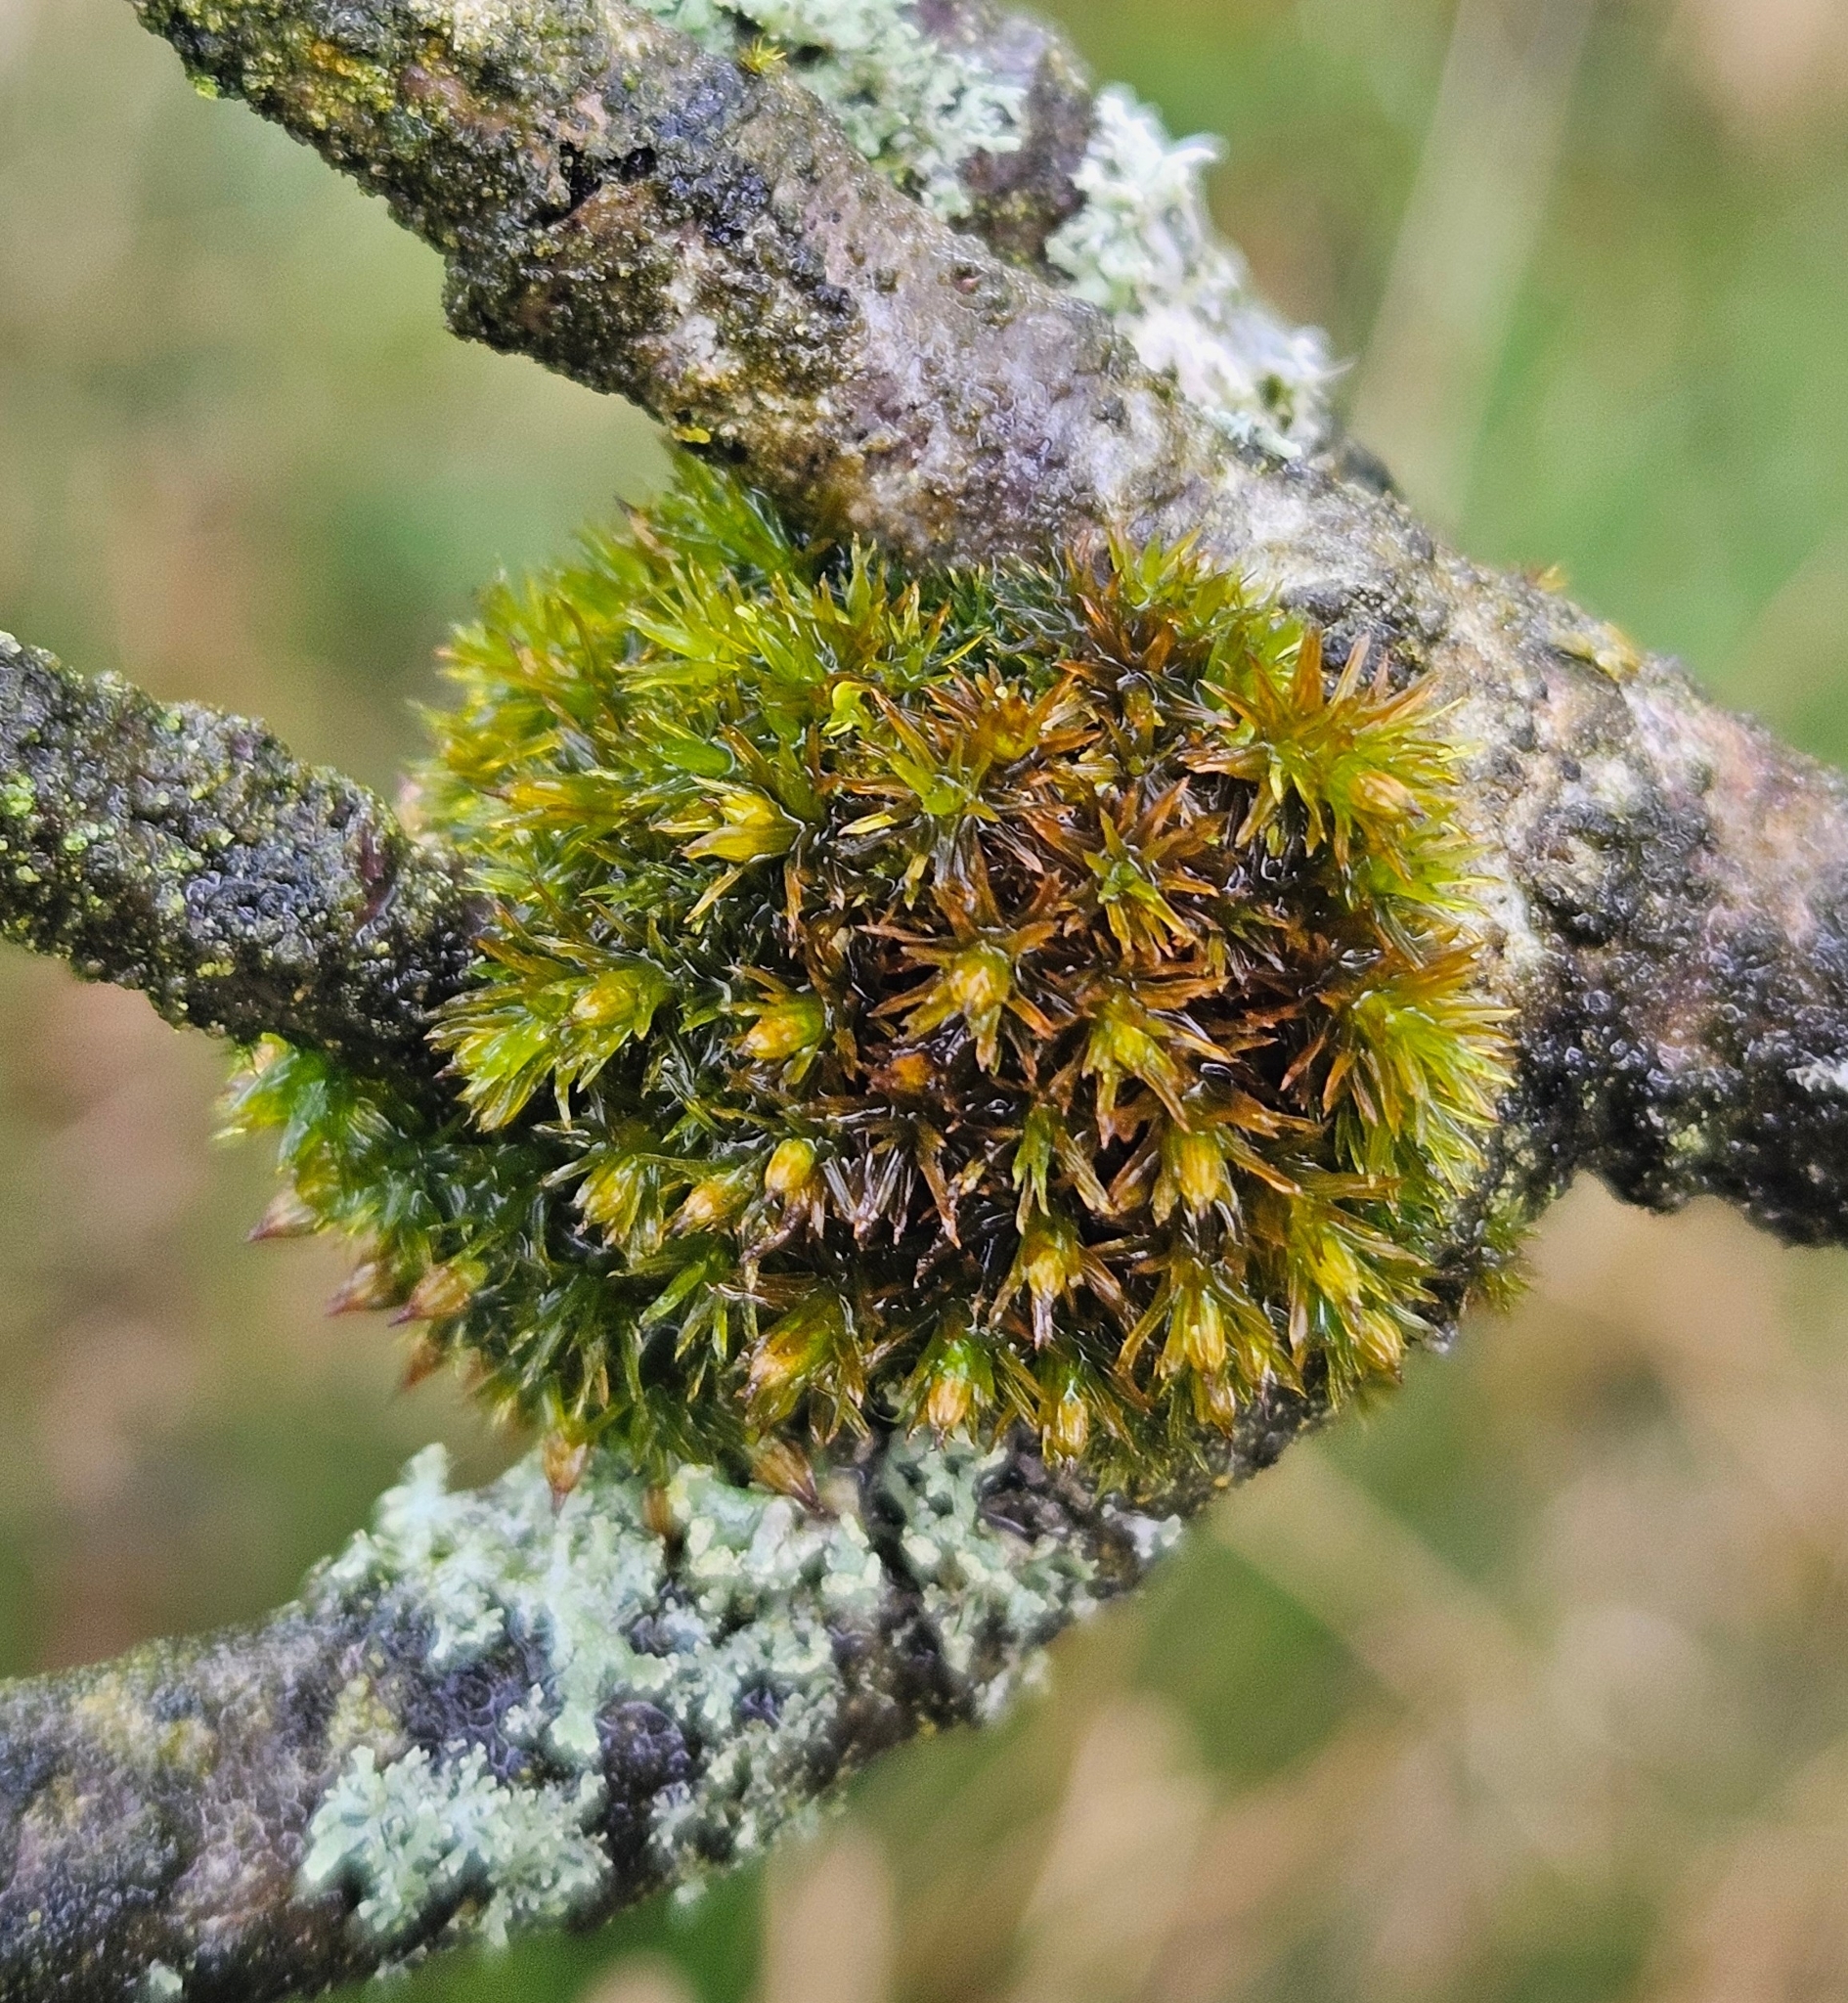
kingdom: Plantae
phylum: Bryophyta
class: Bryopsida
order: Orthotrichales
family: Orthotrichaceae
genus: Lewinskya
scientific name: Lewinskya affinis
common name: Wood bristle-moss
